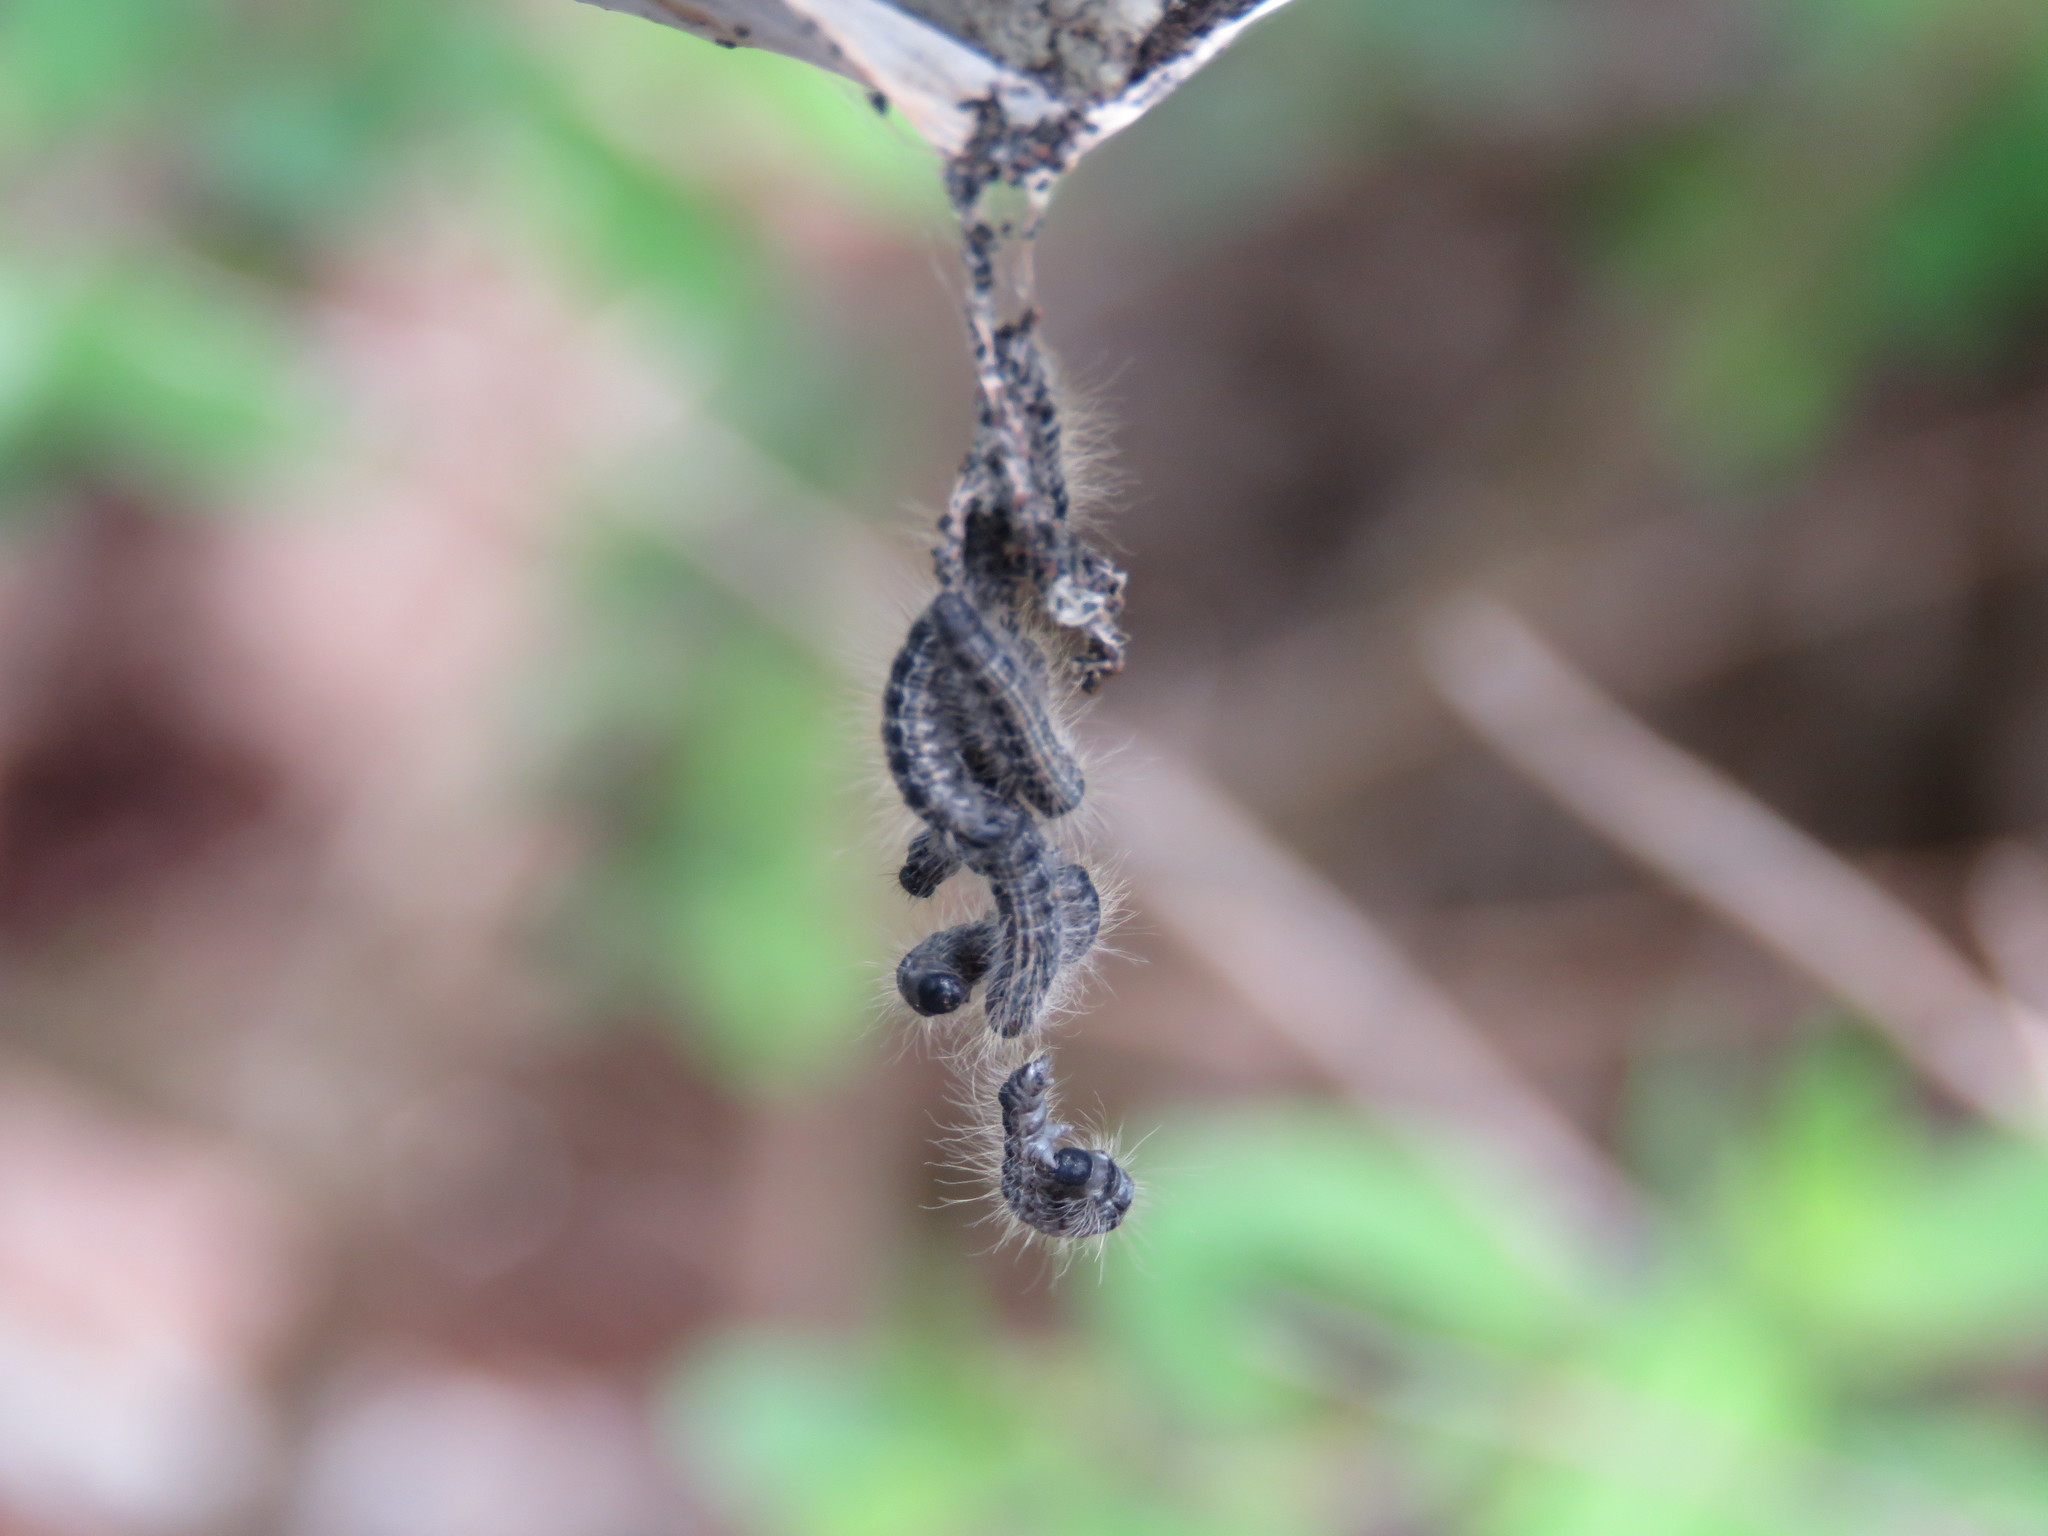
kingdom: Animalia
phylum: Arthropoda
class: Insecta
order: Lepidoptera
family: Lasiocampidae
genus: Malacosoma
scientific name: Malacosoma americana
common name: Eastern tent caterpillar moth
